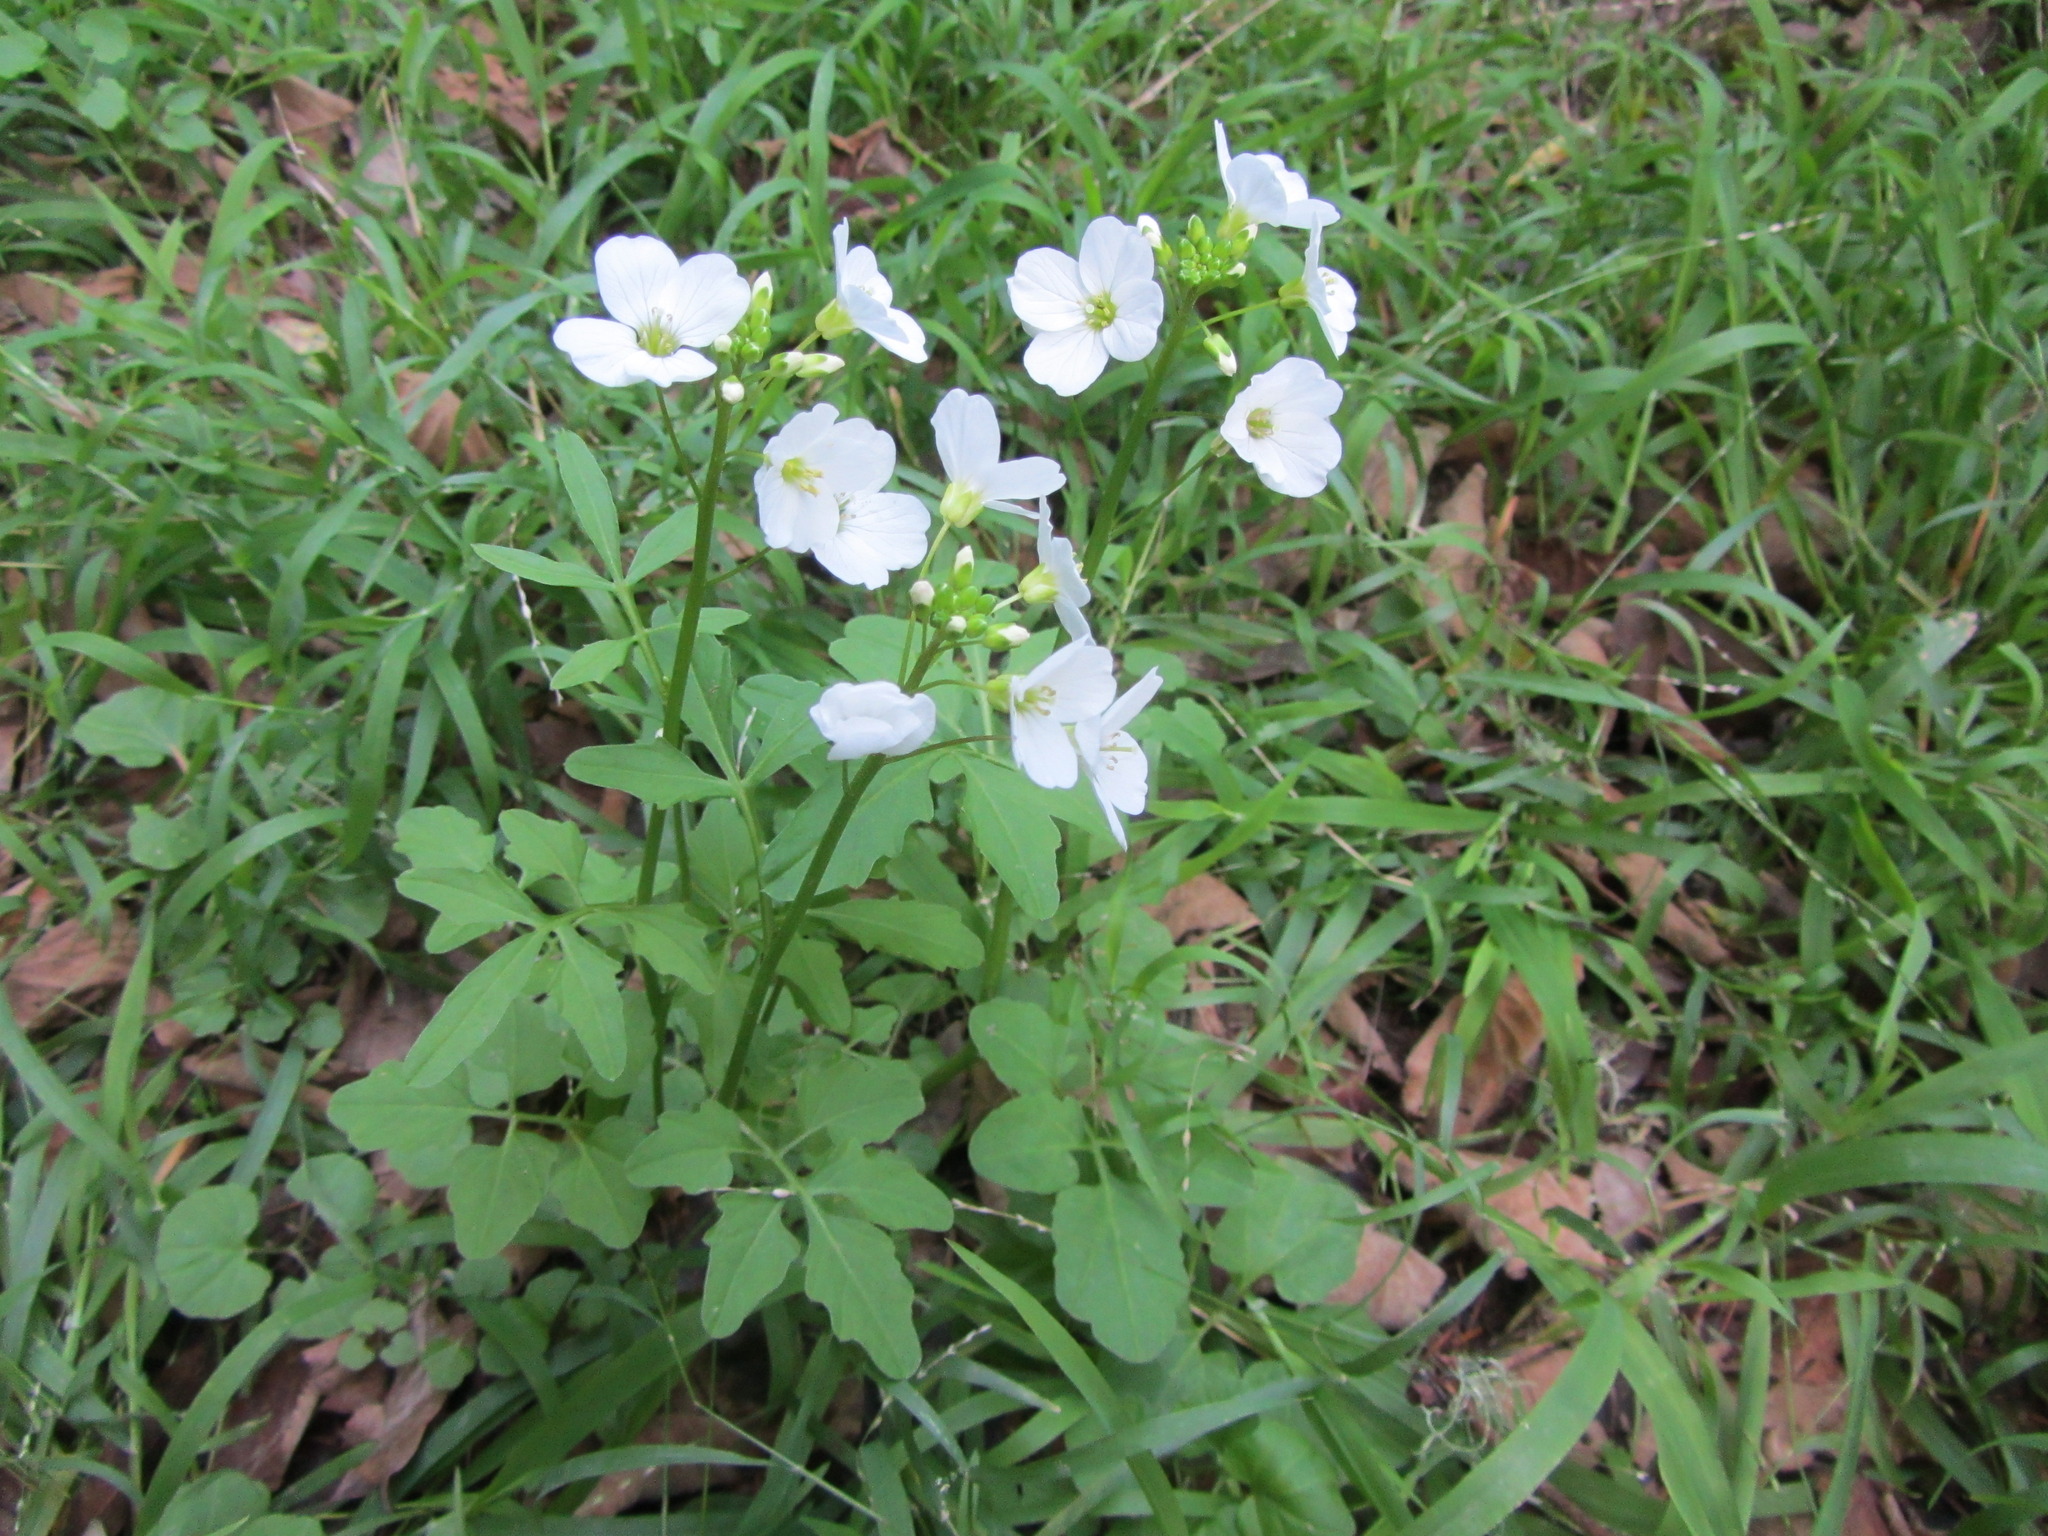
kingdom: Plantae
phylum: Tracheophyta
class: Magnoliopsida
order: Brassicales
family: Brassicaceae
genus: Cardamine
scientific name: Cardamine californica
